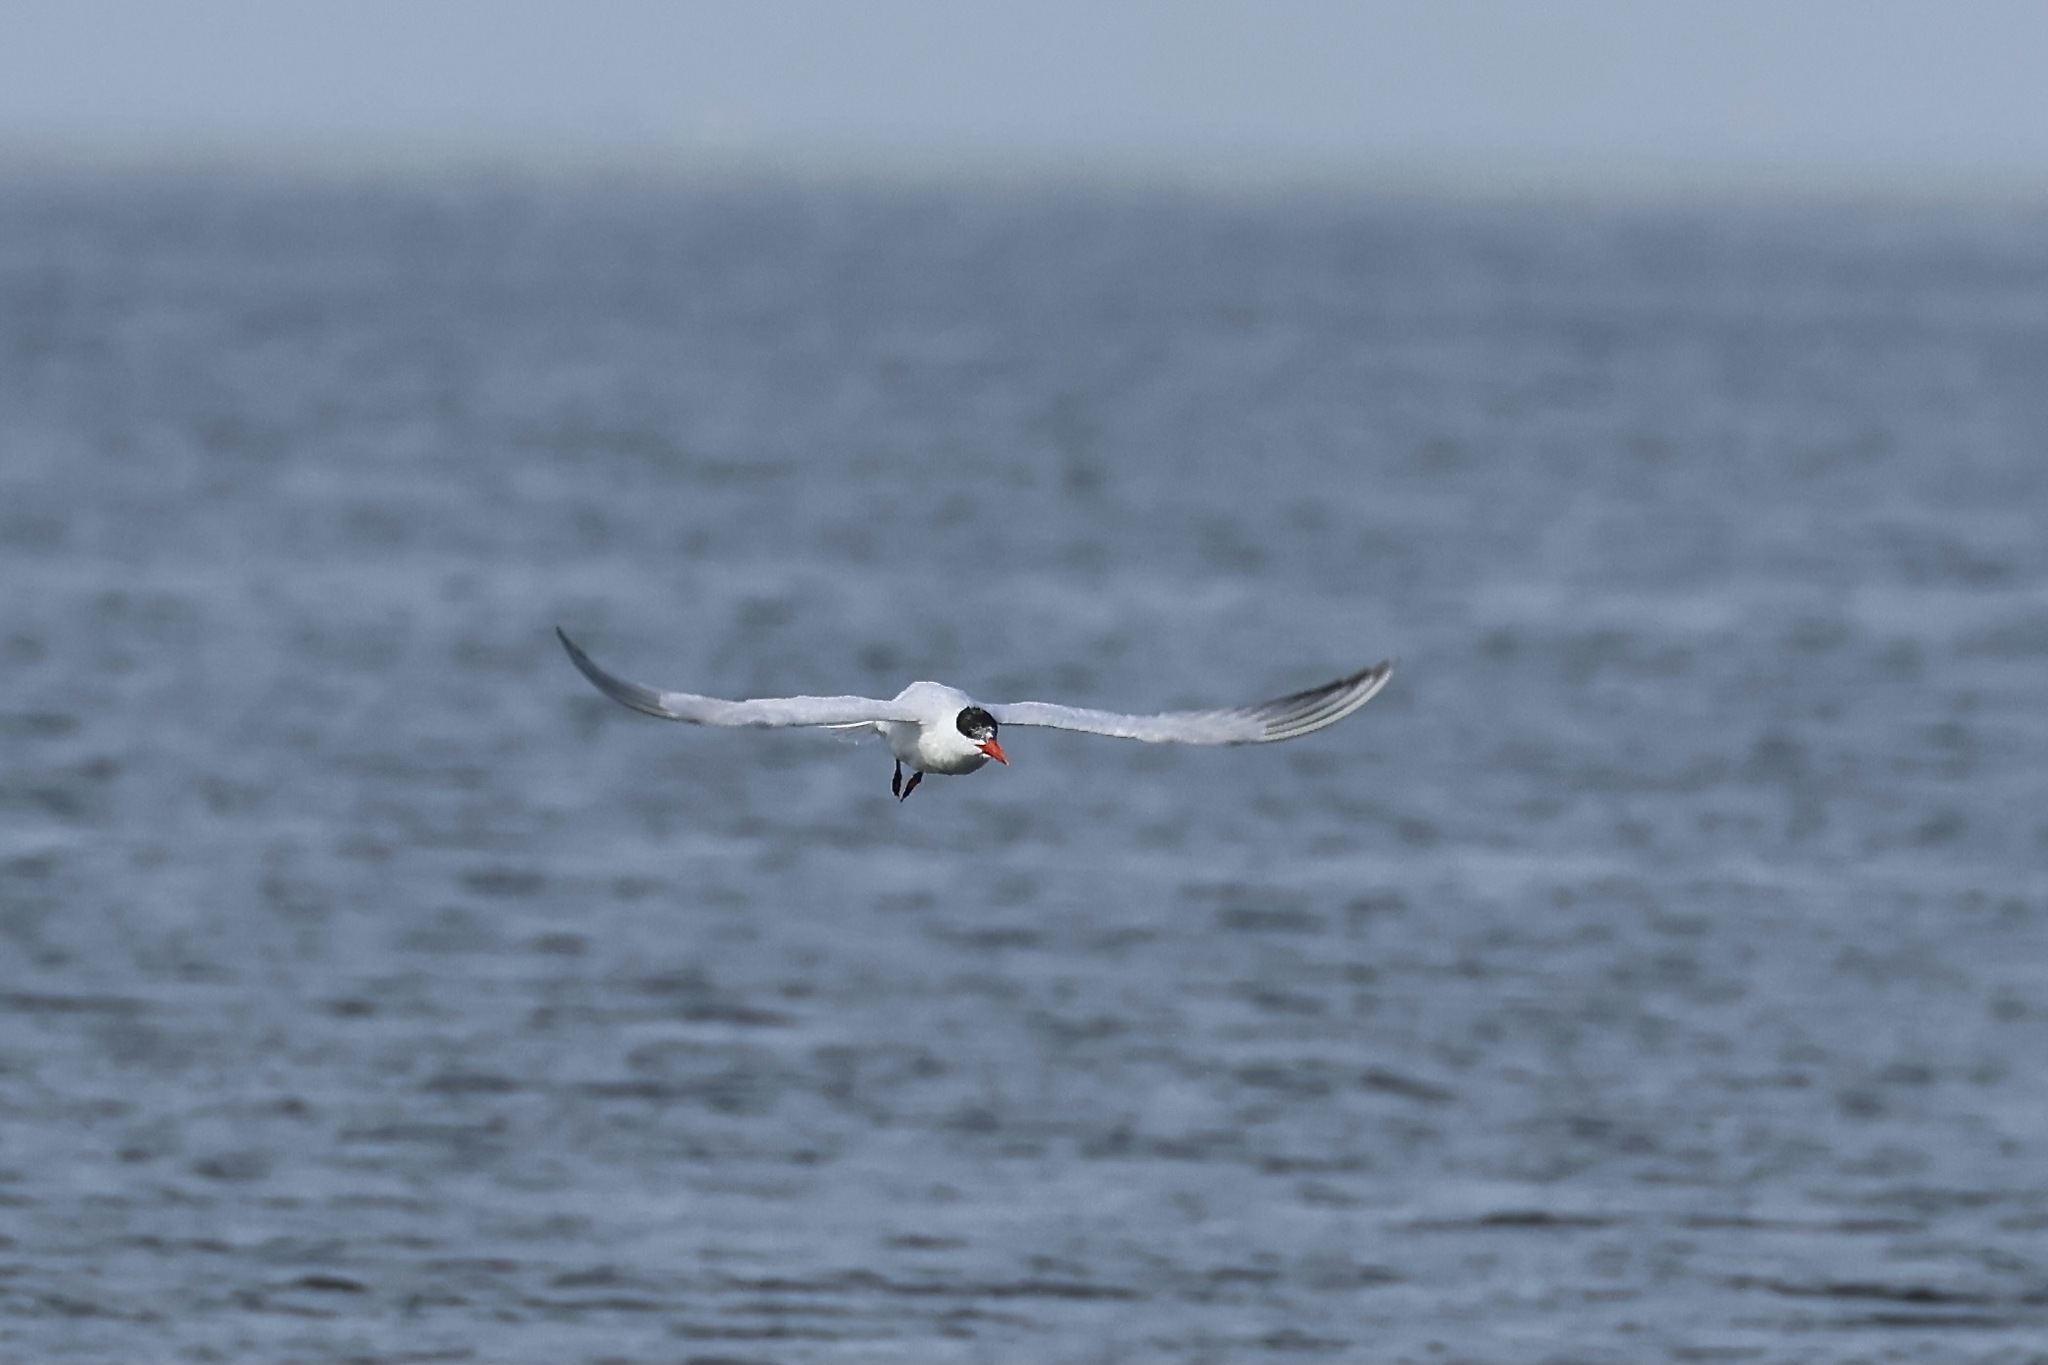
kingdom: Animalia
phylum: Chordata
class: Aves
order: Charadriiformes
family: Laridae
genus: Hydroprogne
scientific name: Hydroprogne caspia
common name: Caspian tern
